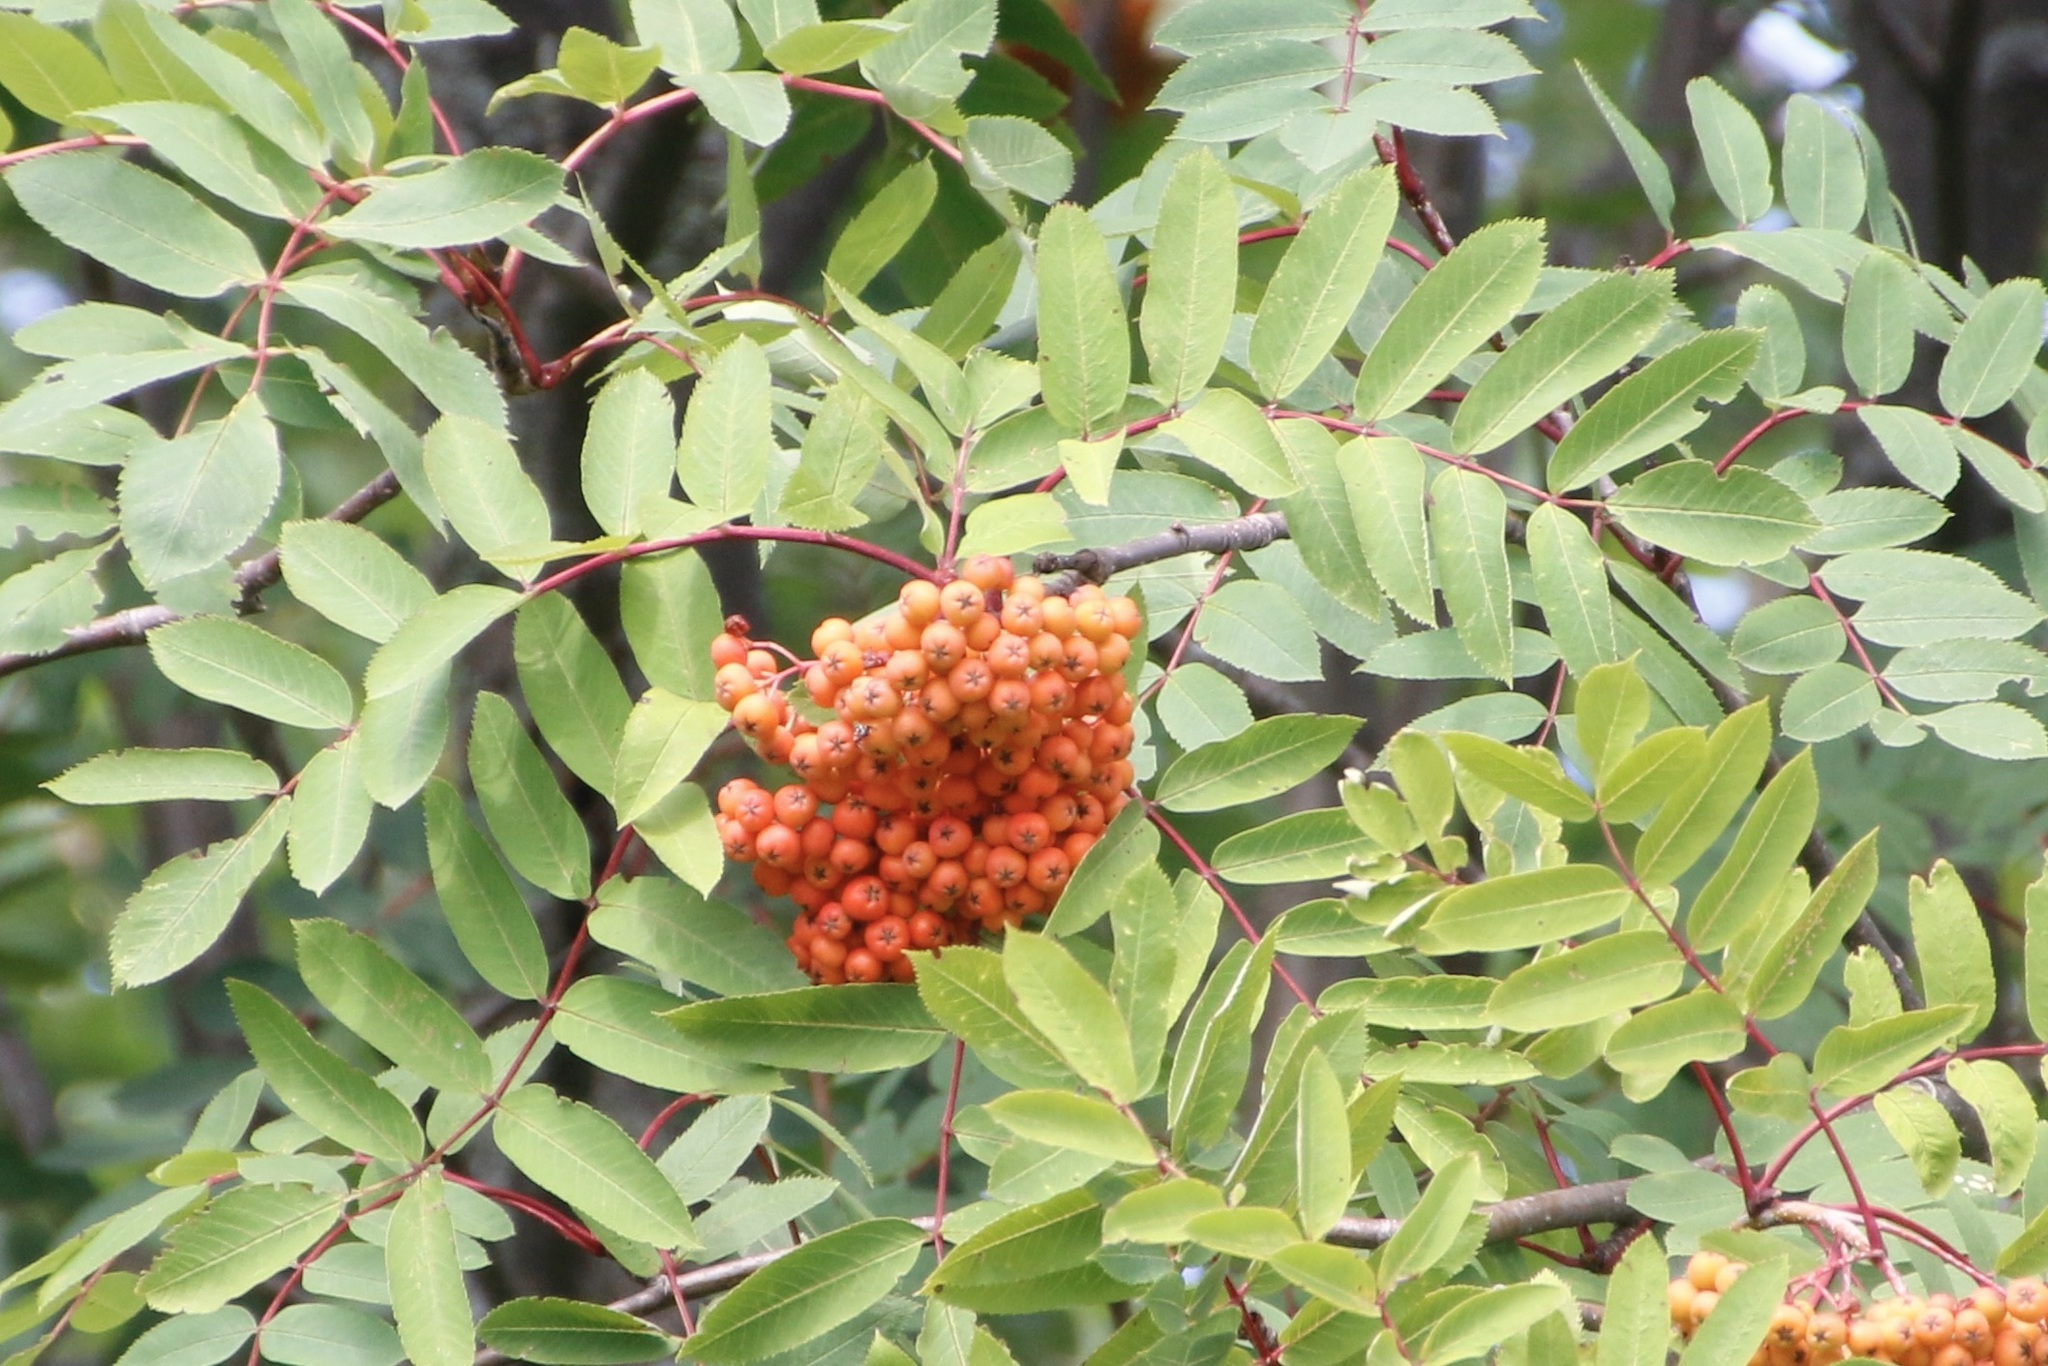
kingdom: Plantae
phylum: Tracheophyta
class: Magnoliopsida
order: Rosales
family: Rosaceae
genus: Sorbus
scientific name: Sorbus decora
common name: Northern mountain-ash
